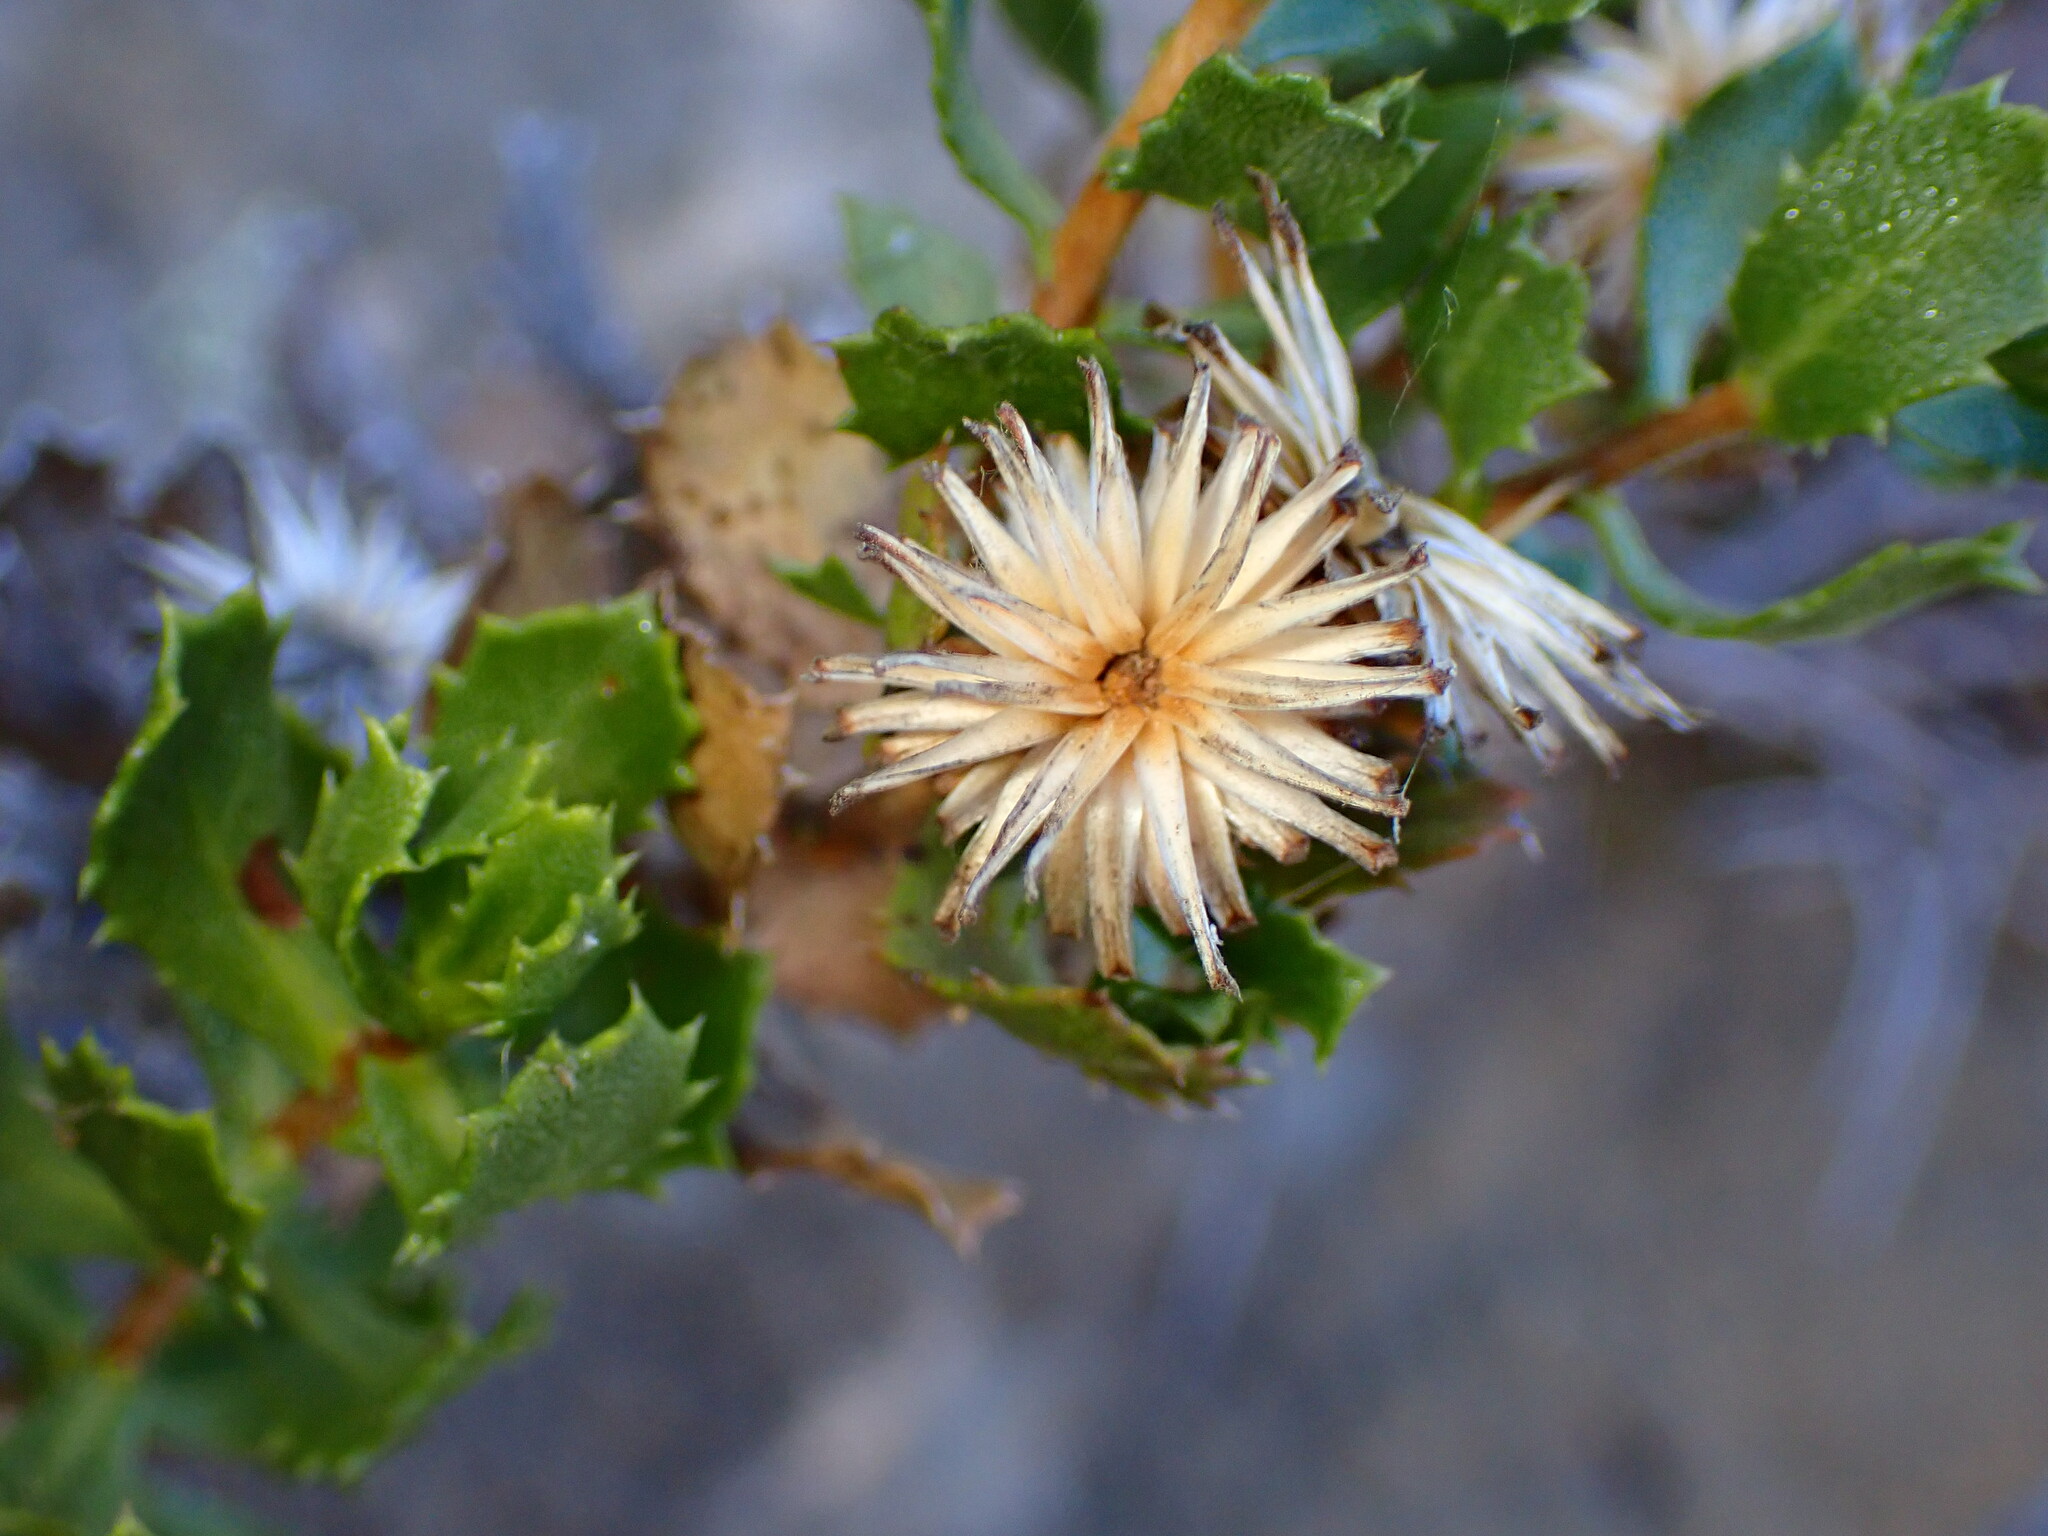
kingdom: Plantae
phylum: Tracheophyta
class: Magnoliopsida
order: Asterales
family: Asteraceae
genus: Hazardia
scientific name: Hazardia squarrosa
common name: Saw-tooth goldenbush
